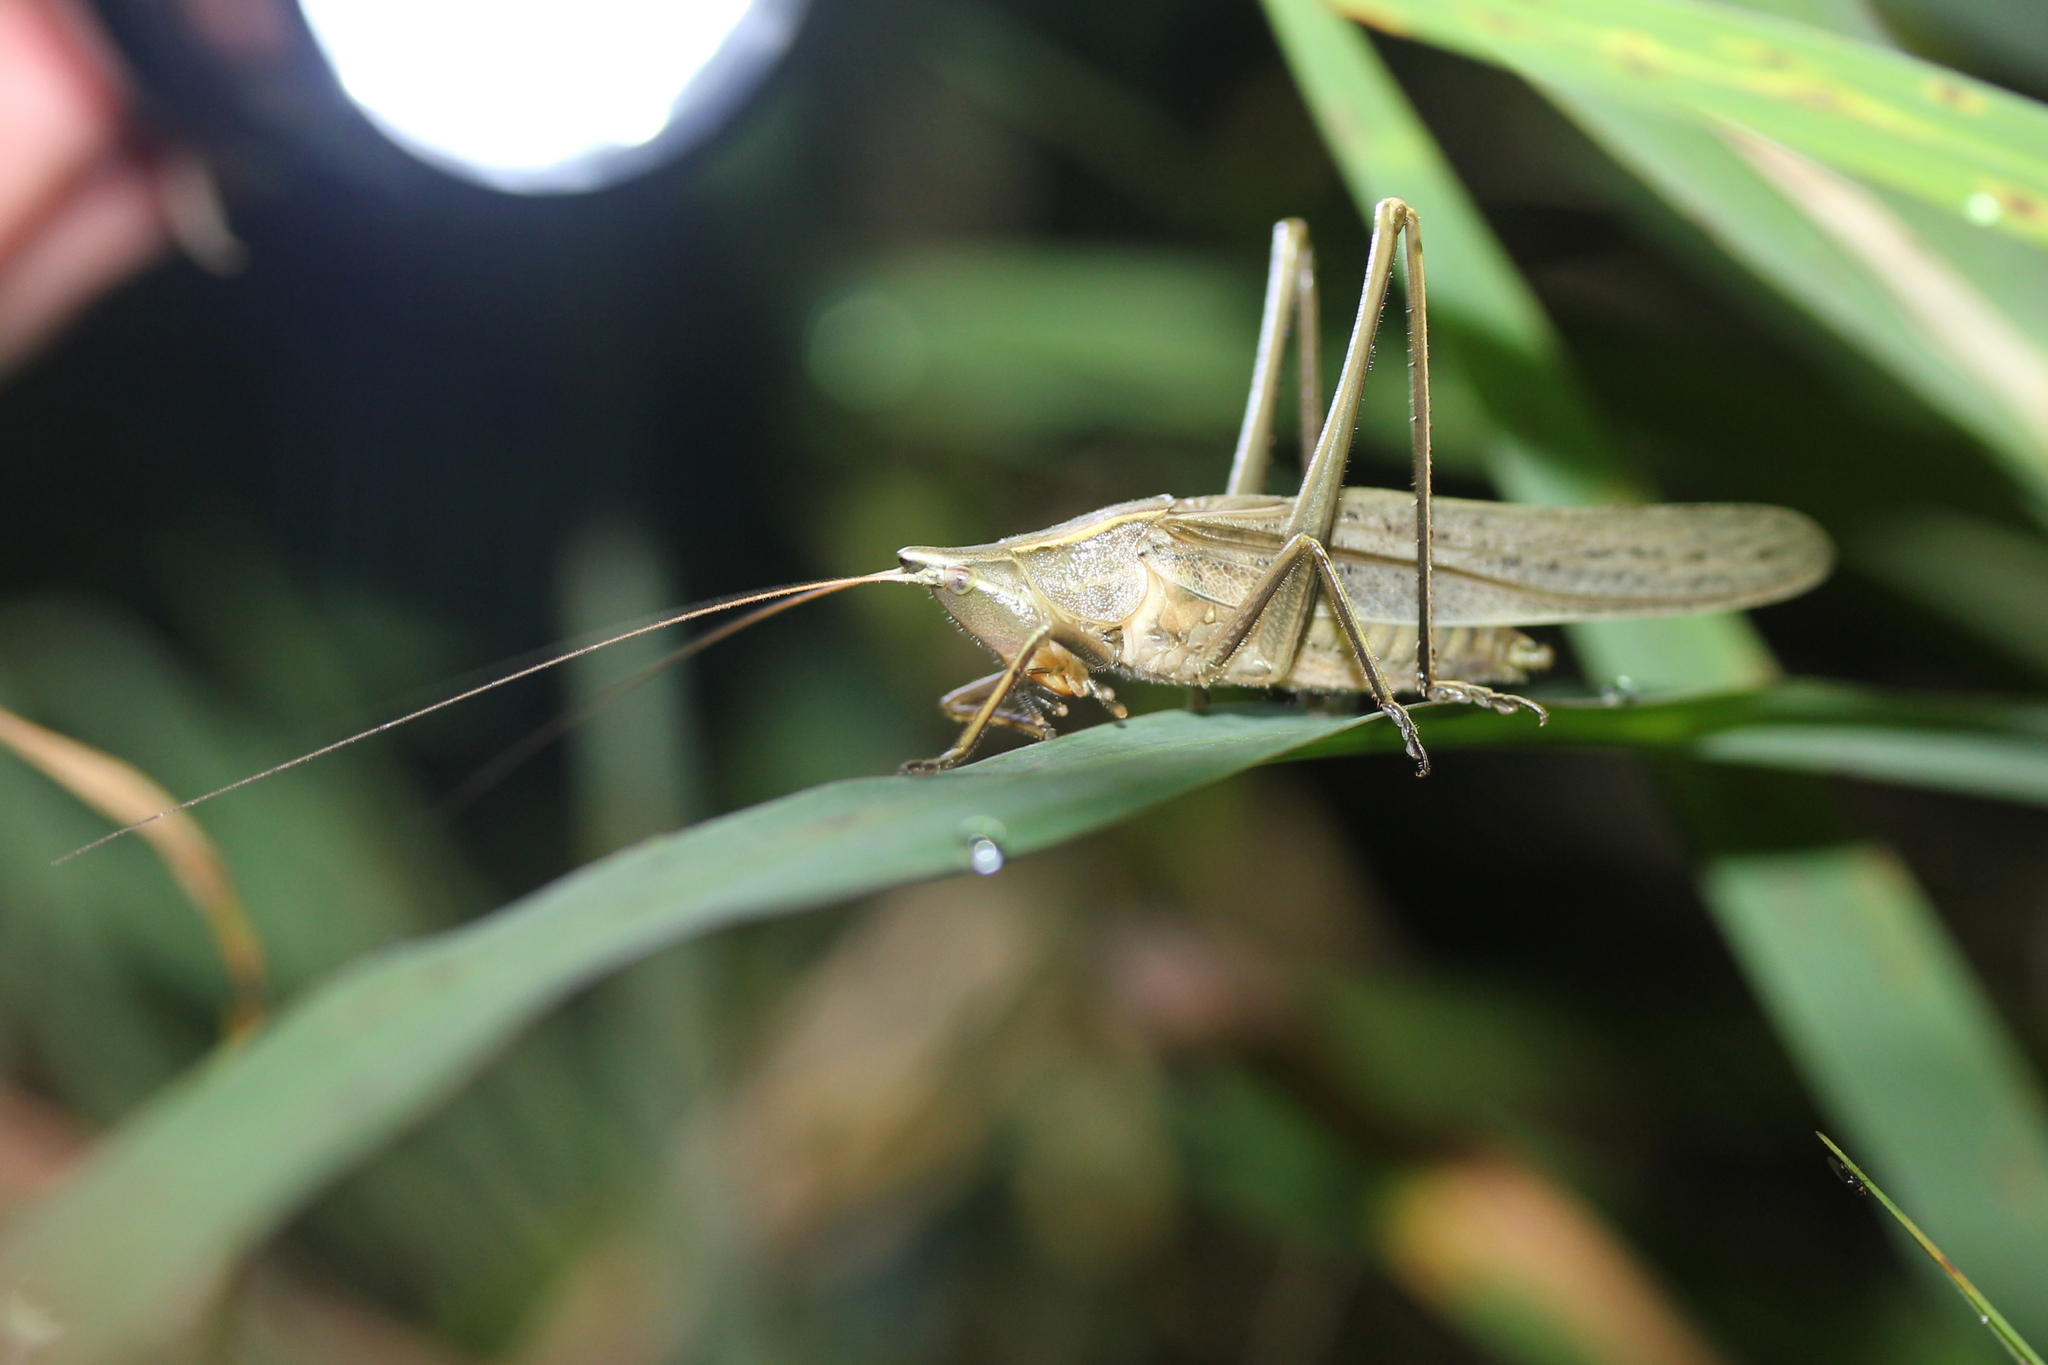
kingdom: Animalia
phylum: Arthropoda
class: Insecta
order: Orthoptera
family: Tettigoniidae
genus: Neoconocephalus
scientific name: Neoconocephalus retusus
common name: Round-tipped conehead
